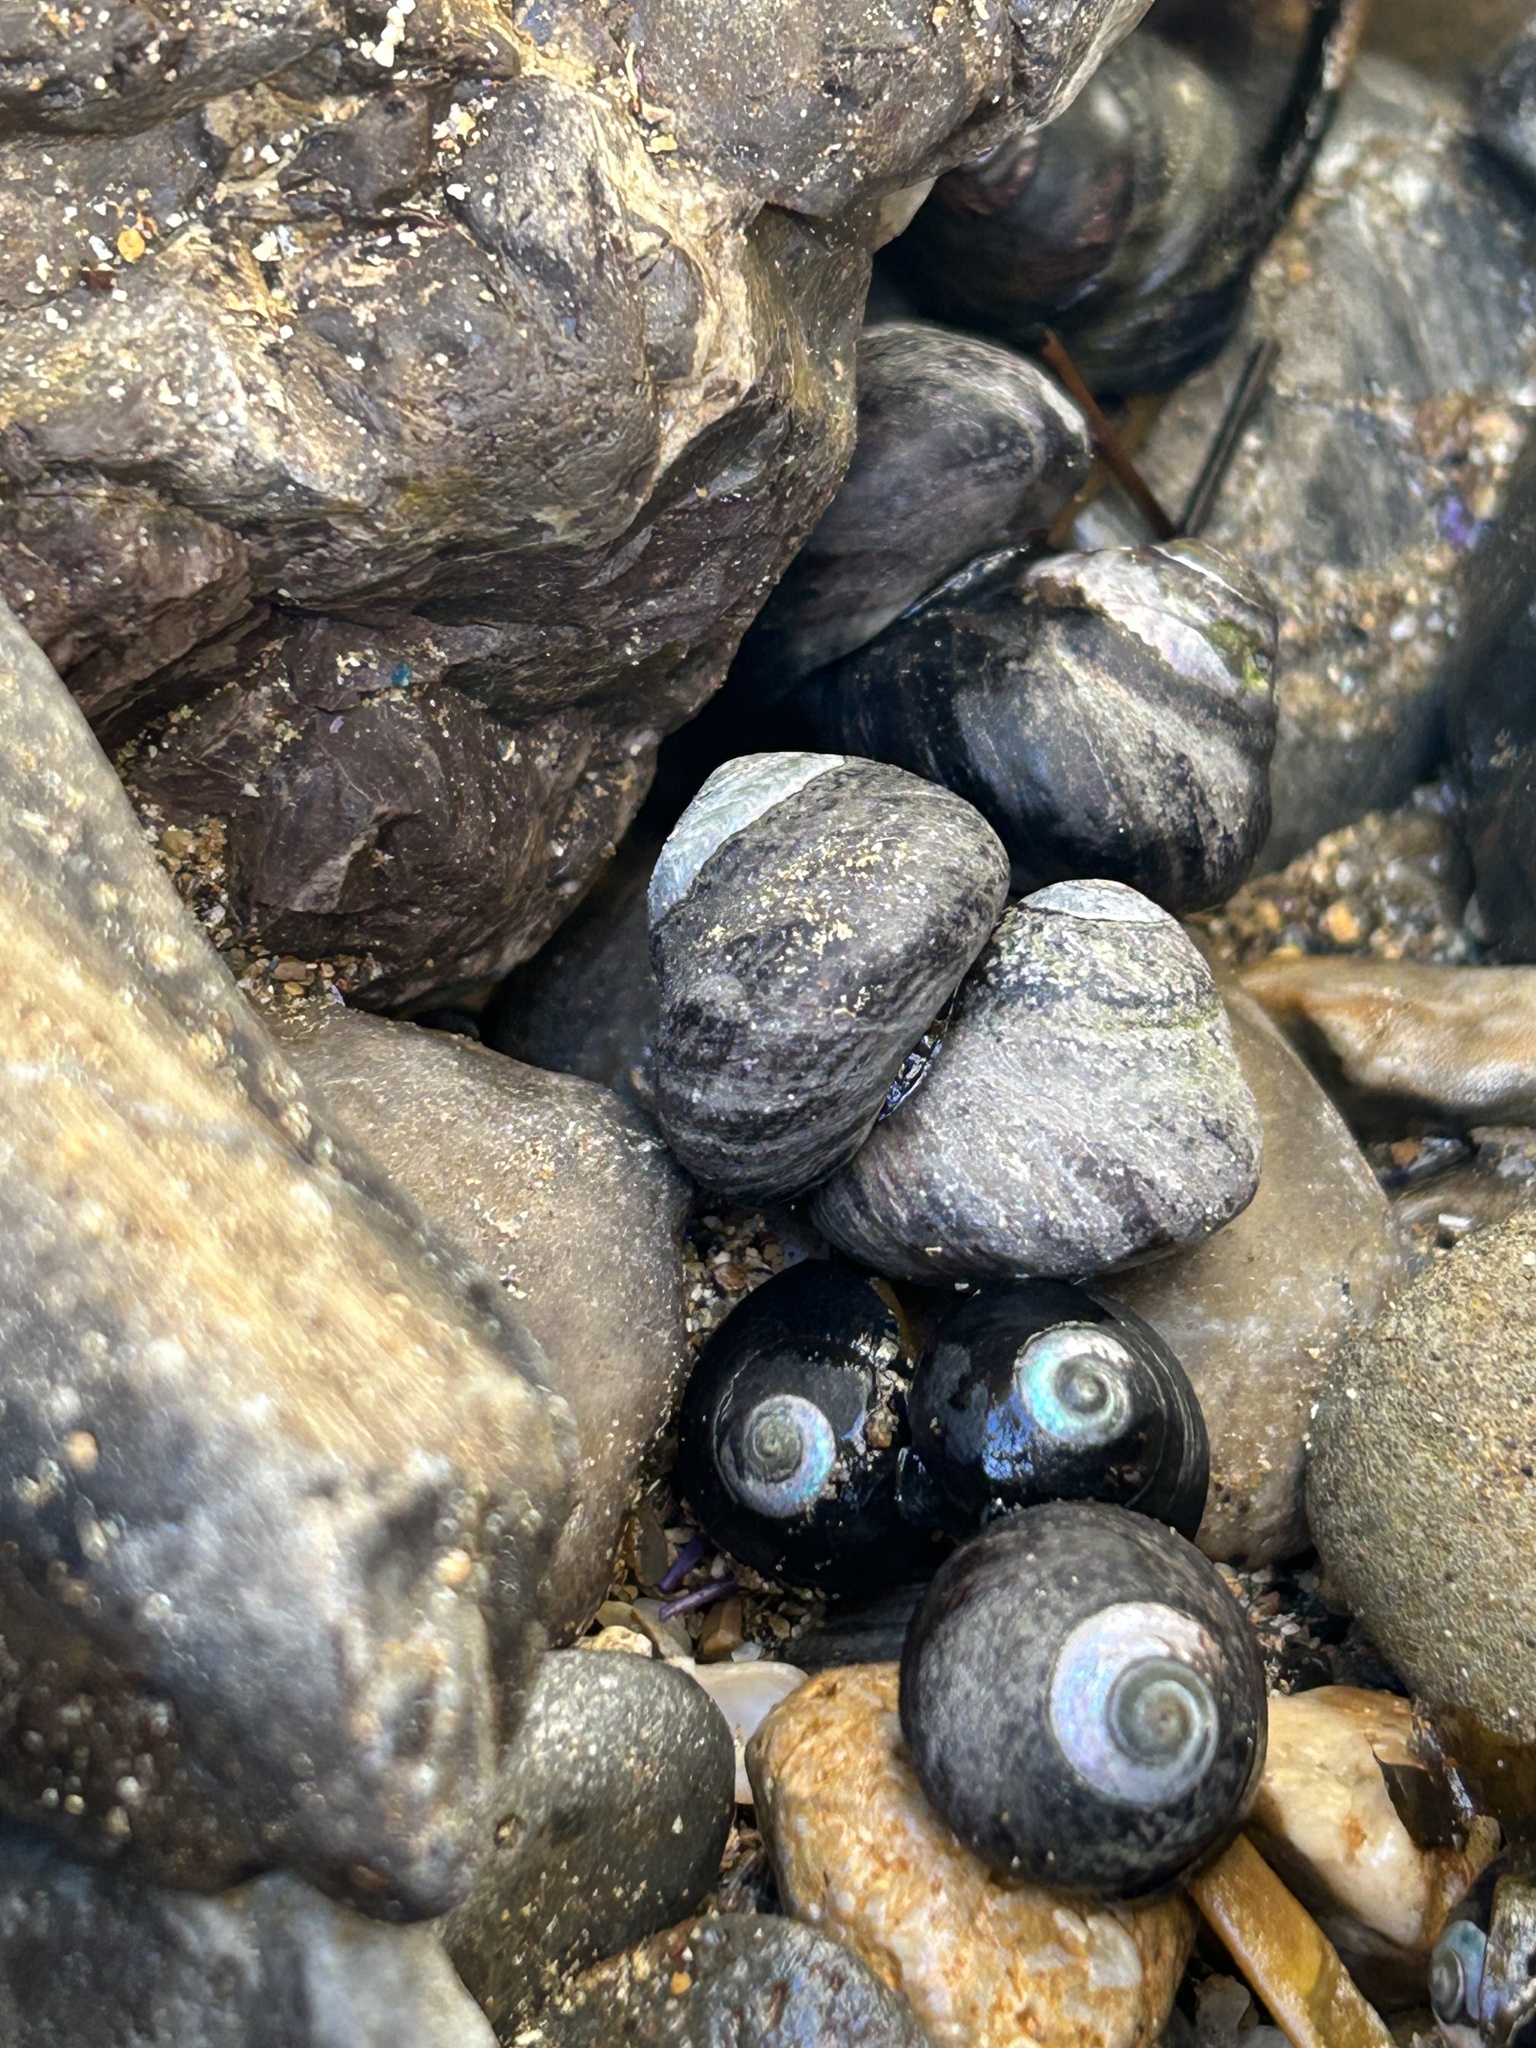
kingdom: Animalia
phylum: Mollusca
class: Gastropoda
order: Trochida
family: Tegulidae
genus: Tegula
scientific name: Tegula gallina
